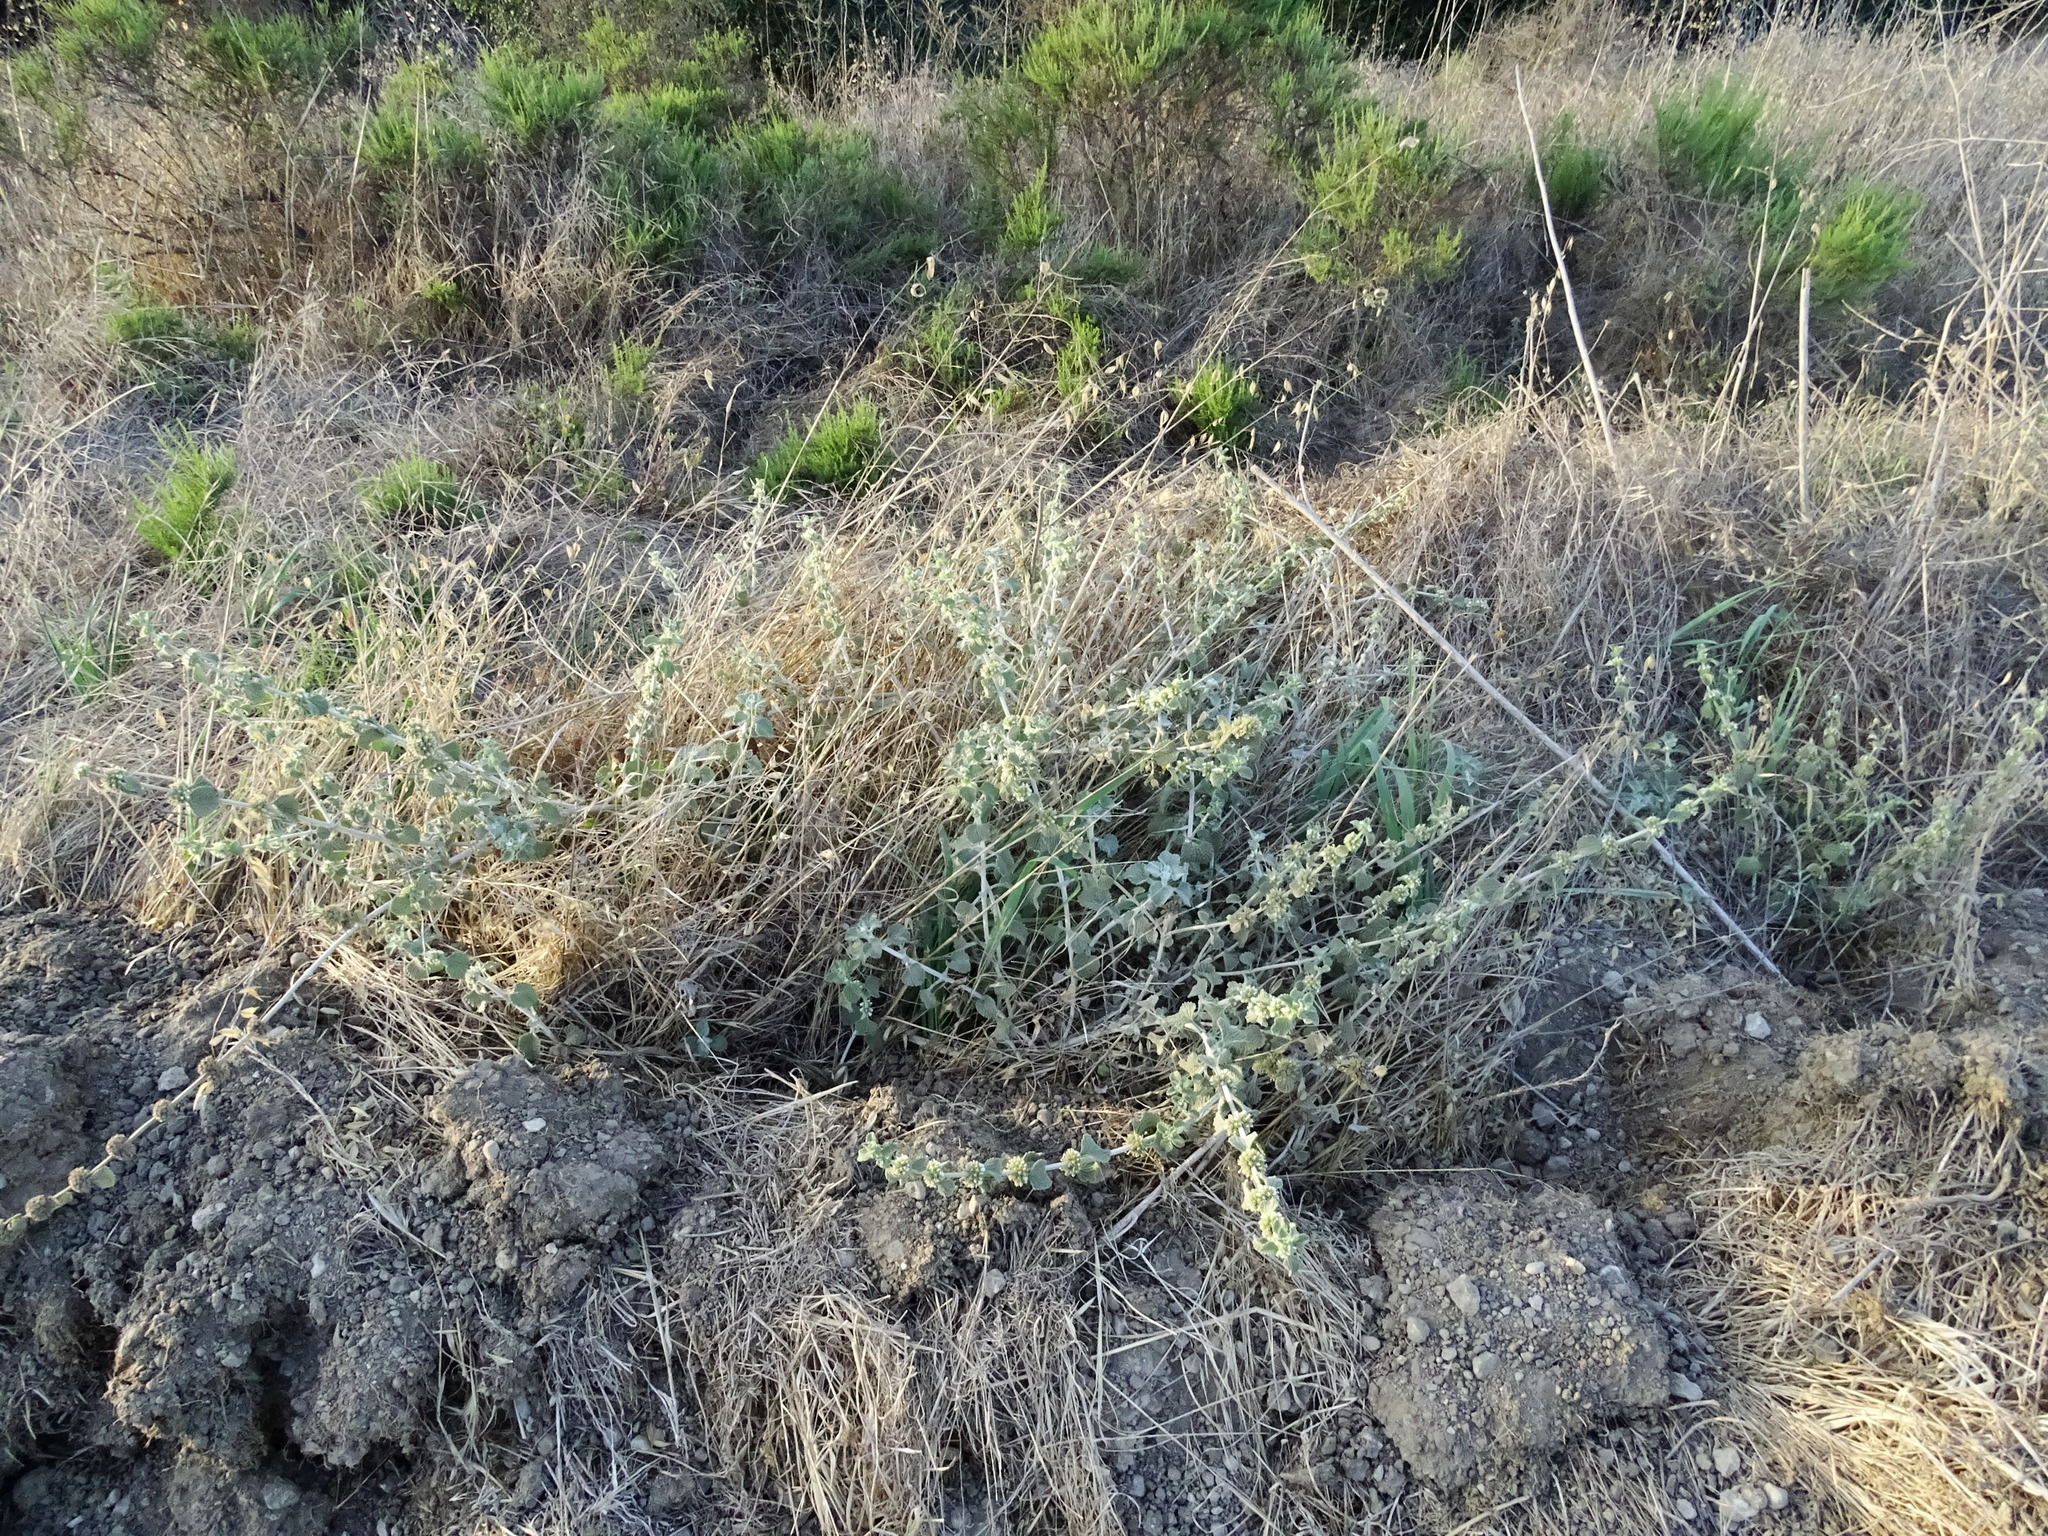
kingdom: Plantae
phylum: Tracheophyta
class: Magnoliopsida
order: Lamiales
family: Lamiaceae
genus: Marrubium
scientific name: Marrubium vulgare
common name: Horehound
